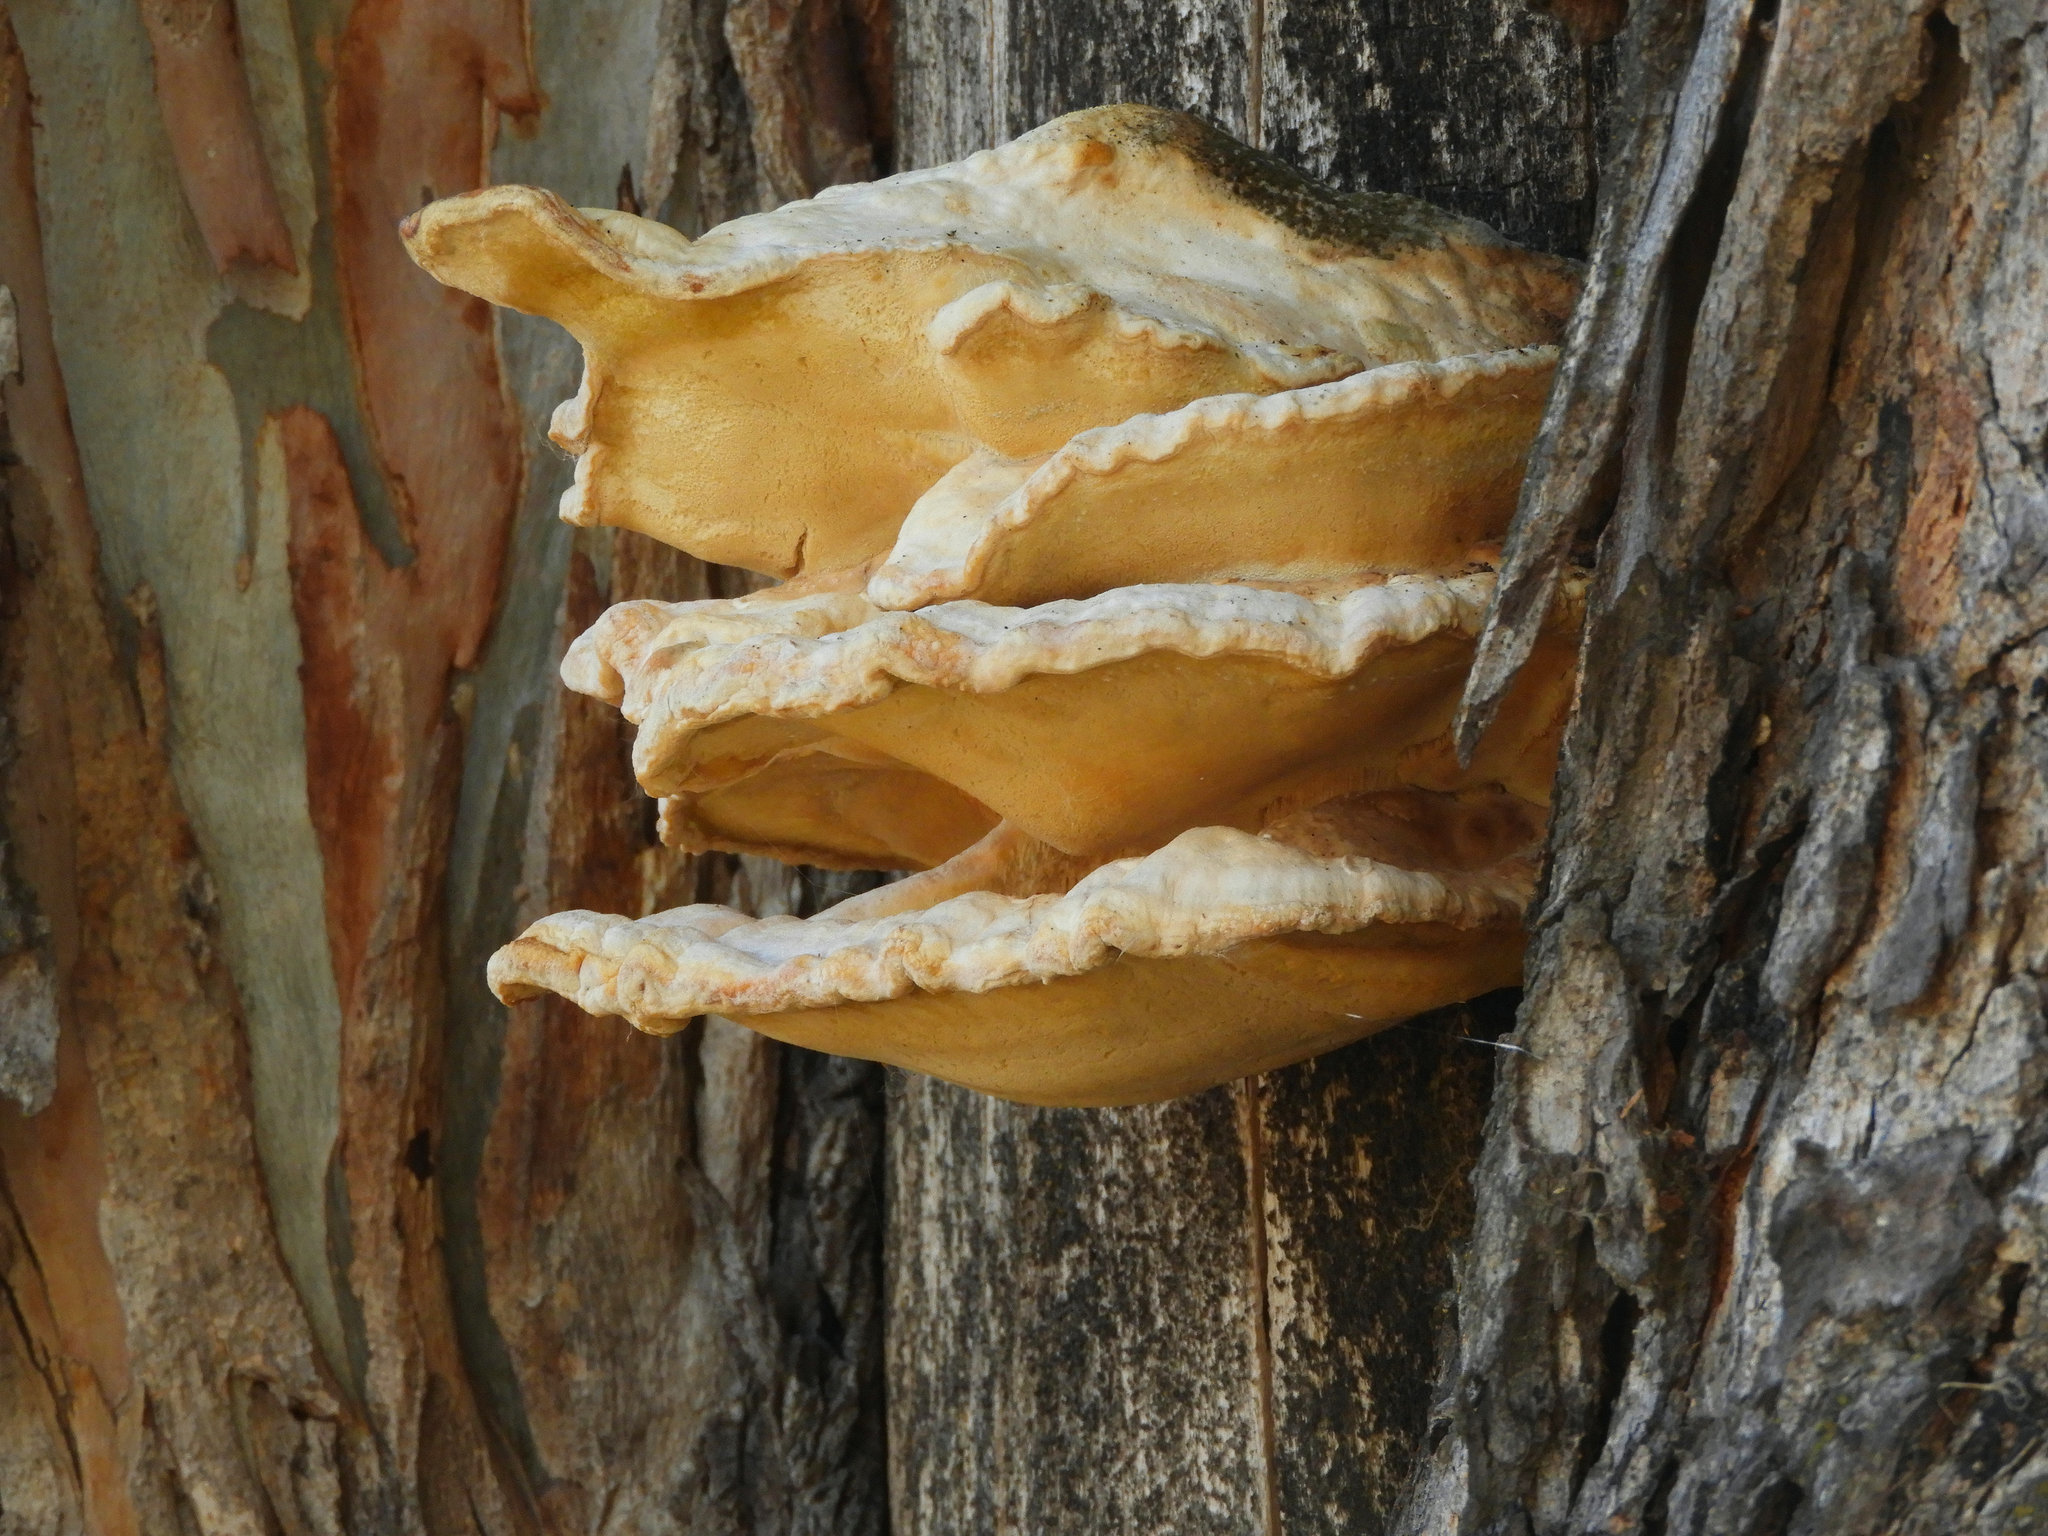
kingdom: Fungi
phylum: Basidiomycota
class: Agaricomycetes
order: Polyporales
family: Laetiporaceae
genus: Laetiporus
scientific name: Laetiporus gilbertsonii
